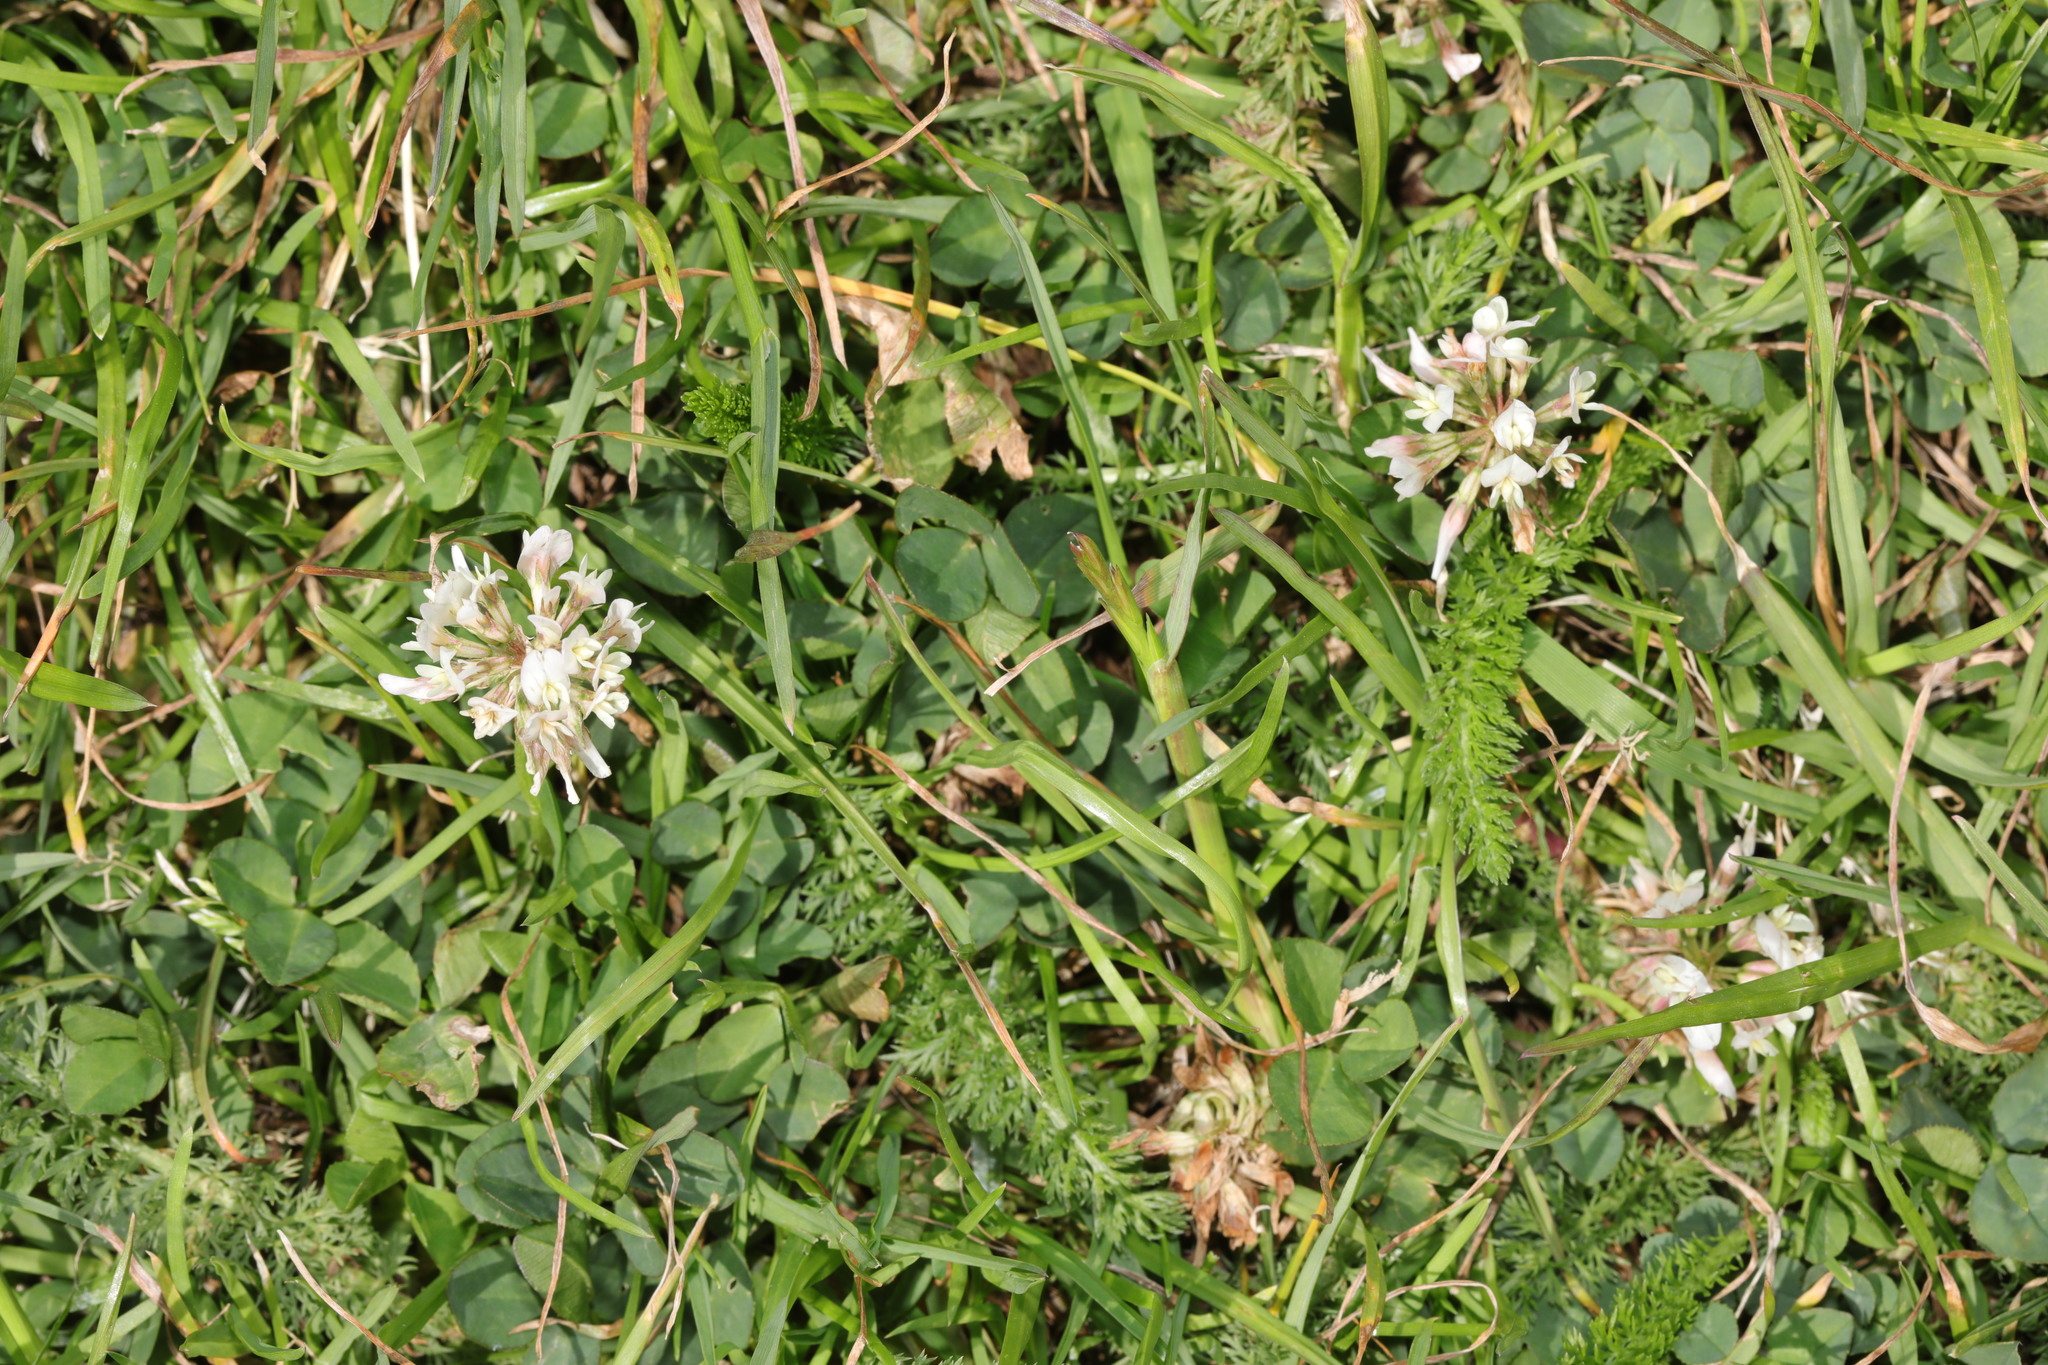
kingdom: Plantae
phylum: Tracheophyta
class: Magnoliopsida
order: Fabales
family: Fabaceae
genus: Trifolium
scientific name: Trifolium repens
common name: White clover
